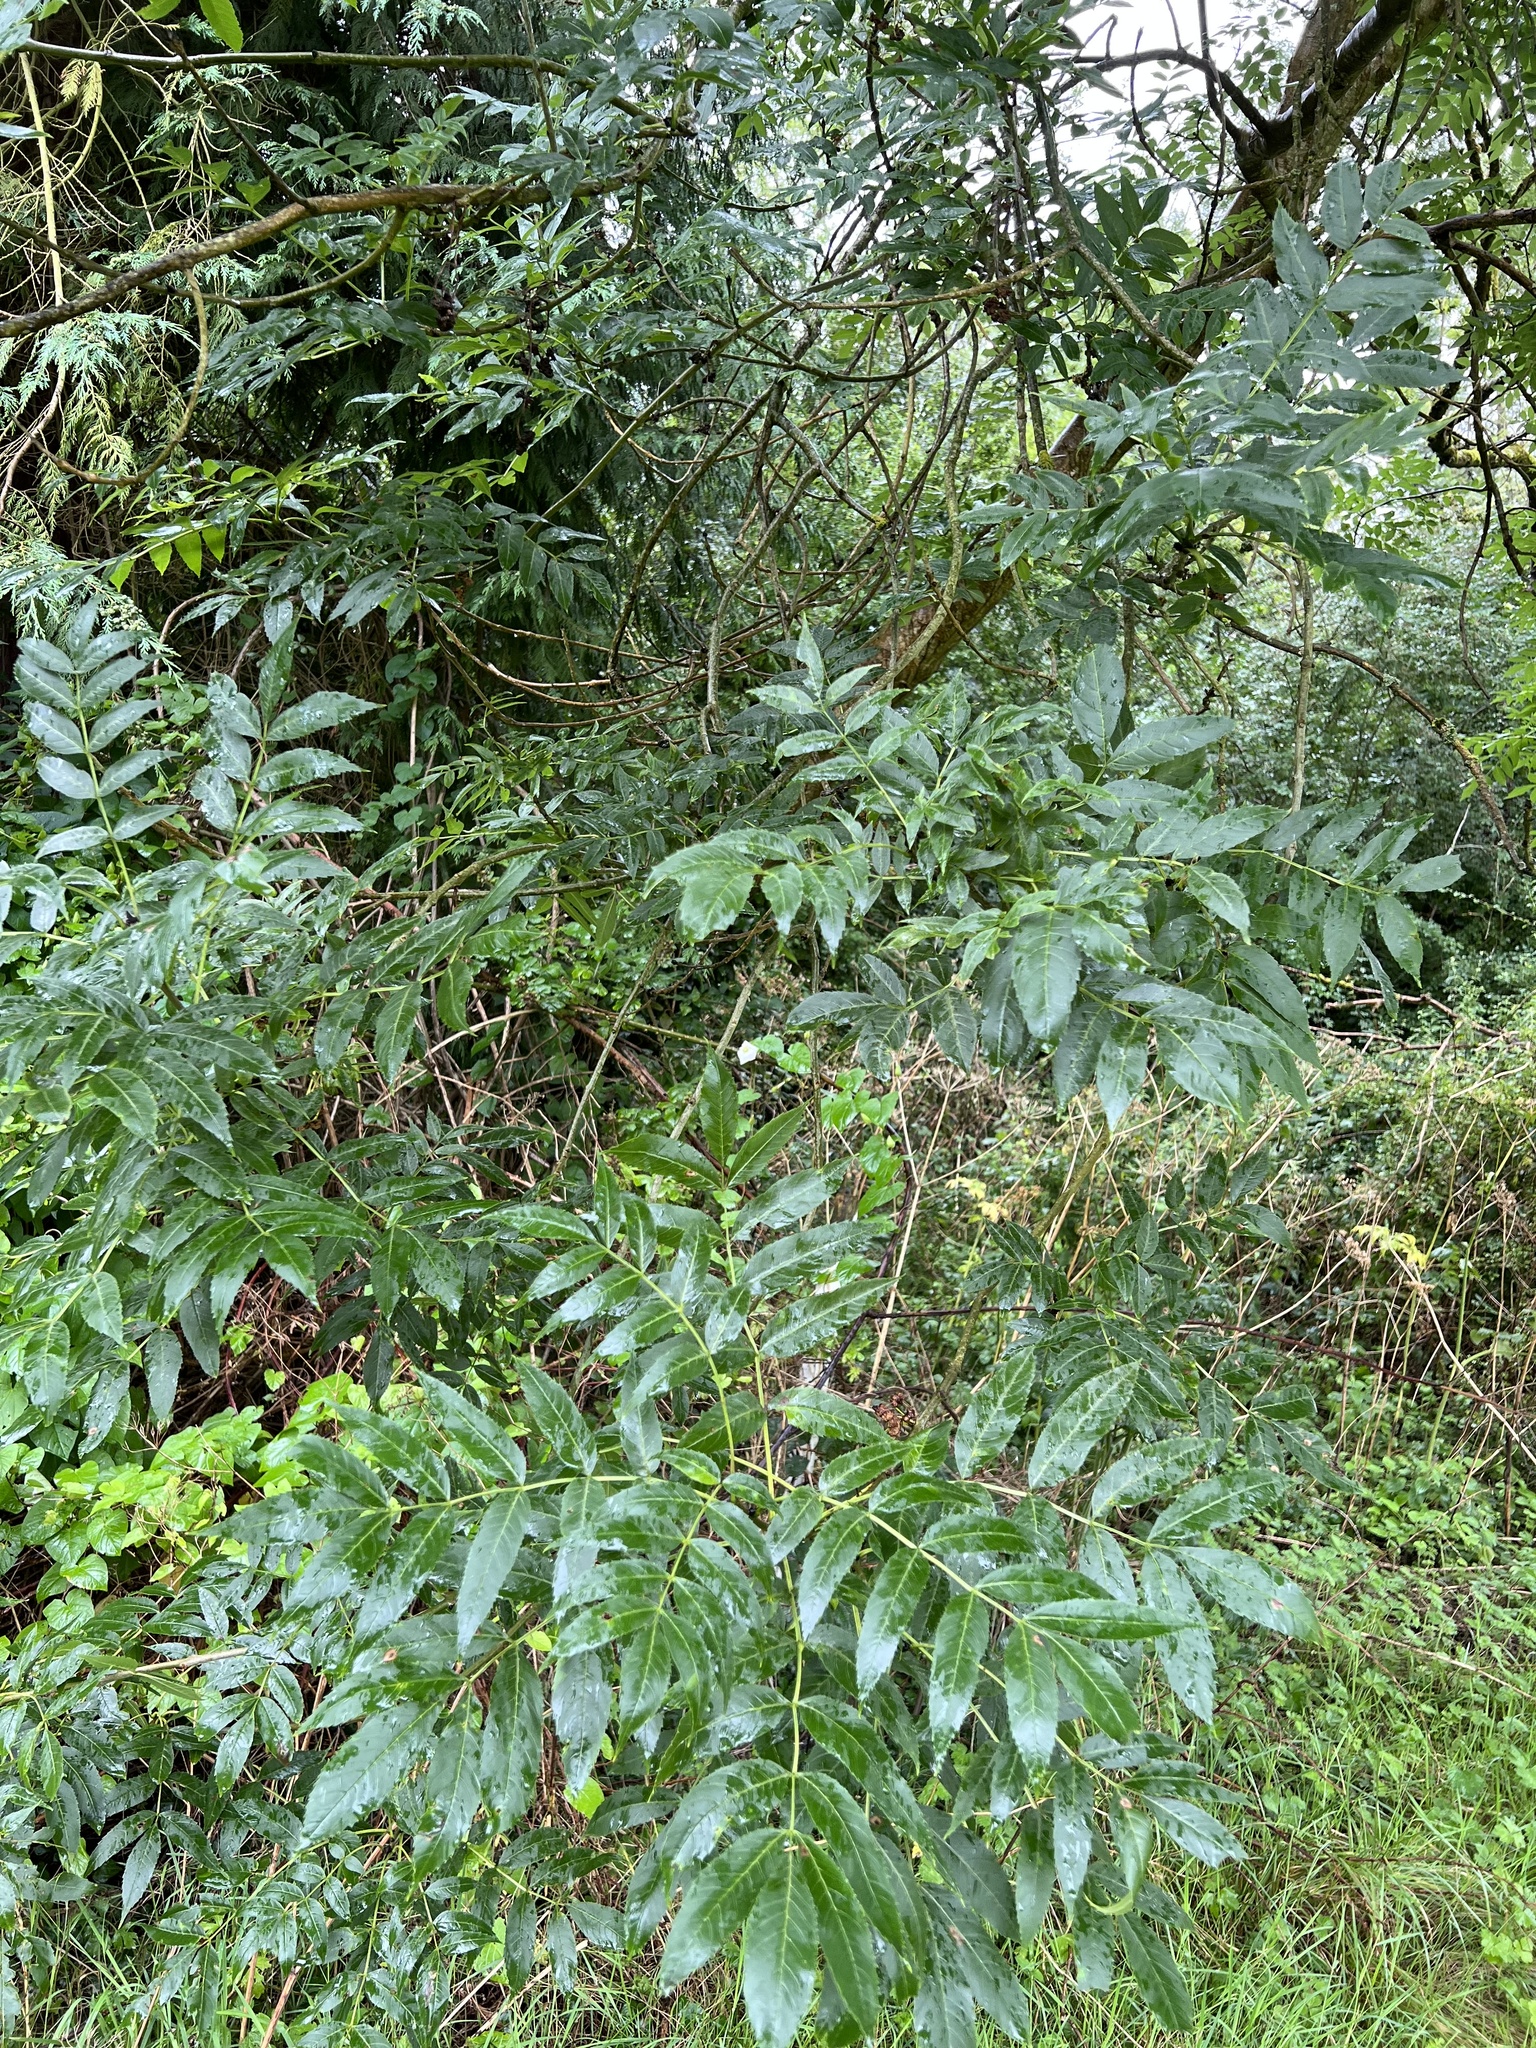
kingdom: Plantae
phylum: Tracheophyta
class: Magnoliopsida
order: Lamiales
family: Oleaceae
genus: Fraxinus
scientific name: Fraxinus excelsior
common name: European ash
